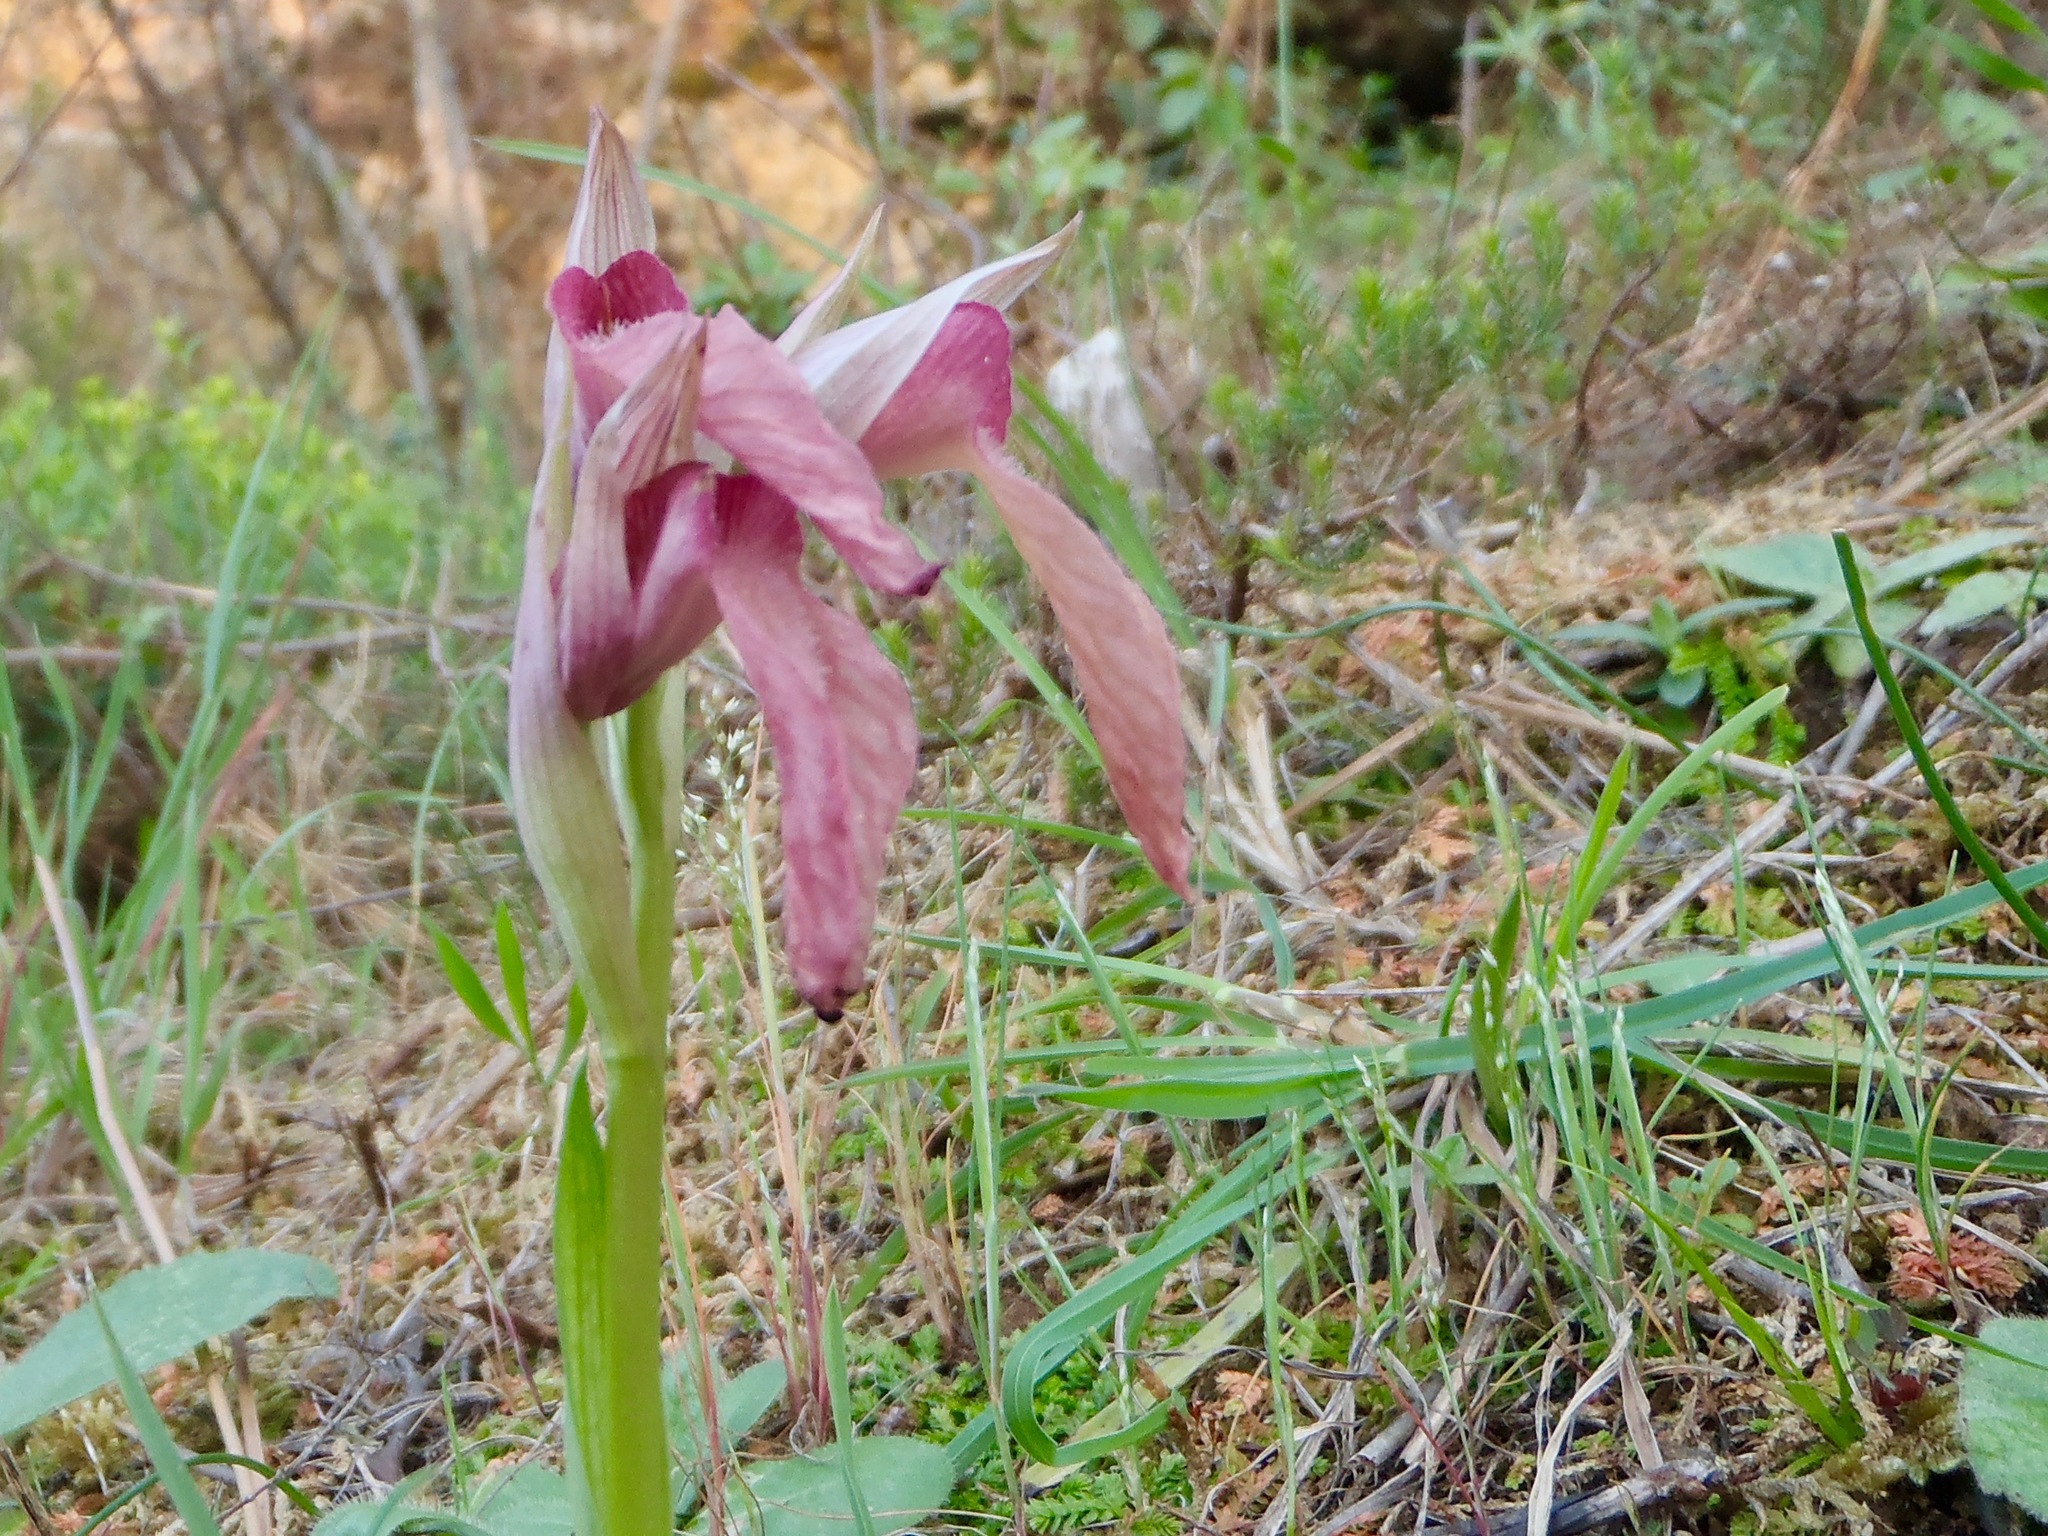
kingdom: Plantae
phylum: Tracheophyta
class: Liliopsida
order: Asparagales
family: Orchidaceae
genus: Serapias
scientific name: Serapias lingua
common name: Tongue-orchid
